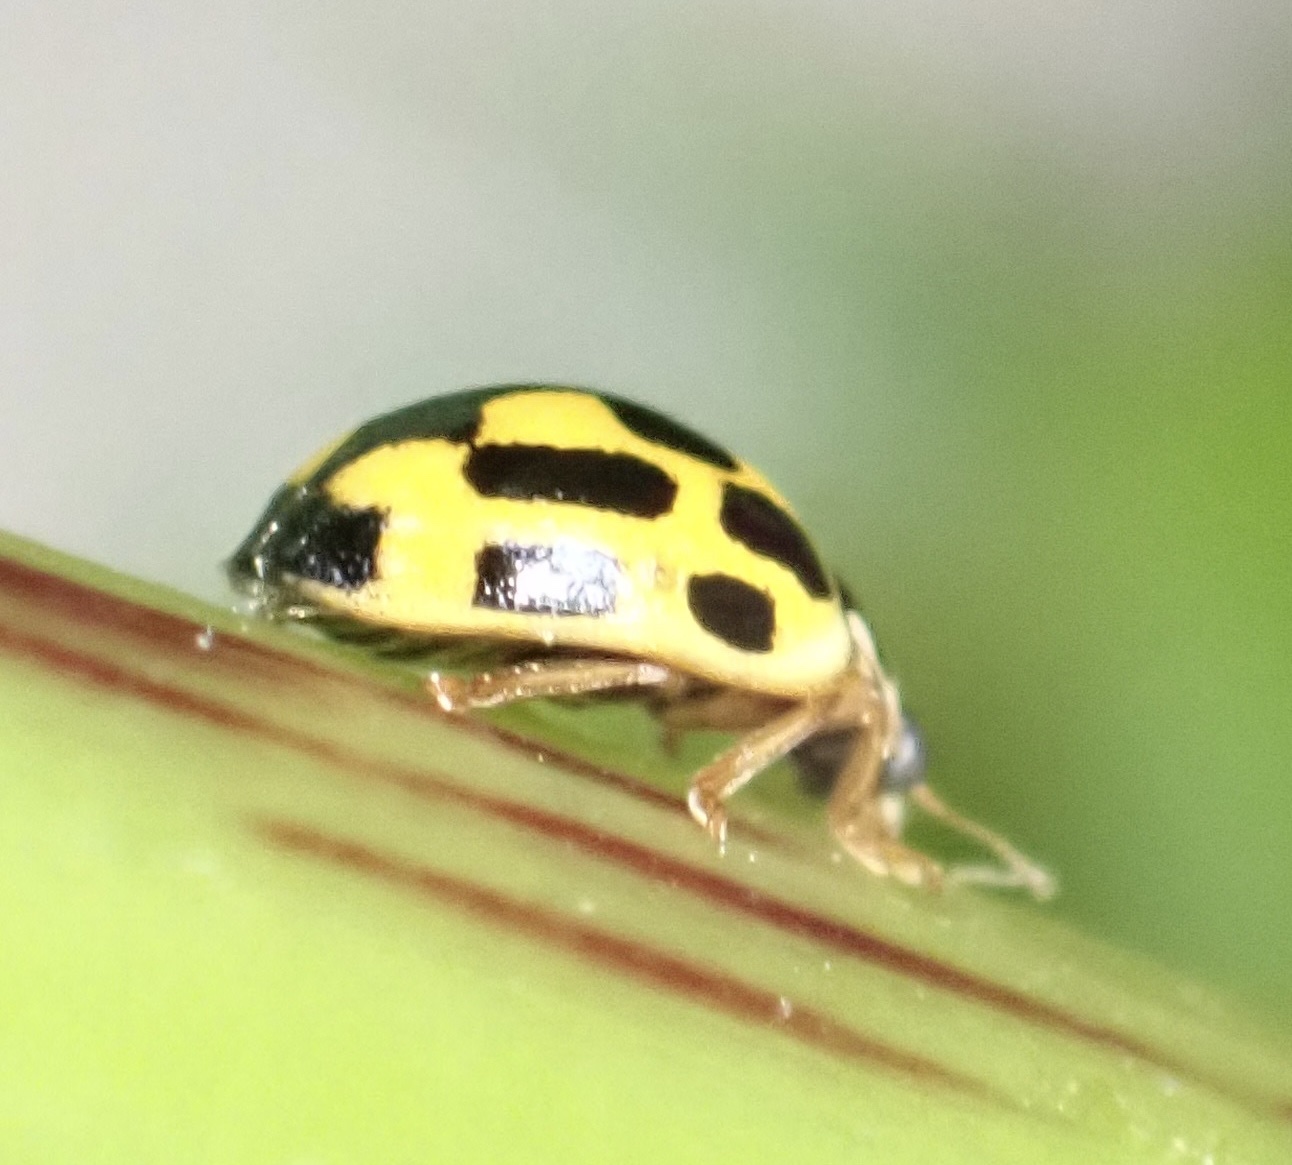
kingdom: Animalia
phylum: Arthropoda
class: Insecta
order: Coleoptera
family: Coccinellidae
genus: Propylaea
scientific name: Propylaea quatuordecimpunctata
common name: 14-spotted ladybird beetle
